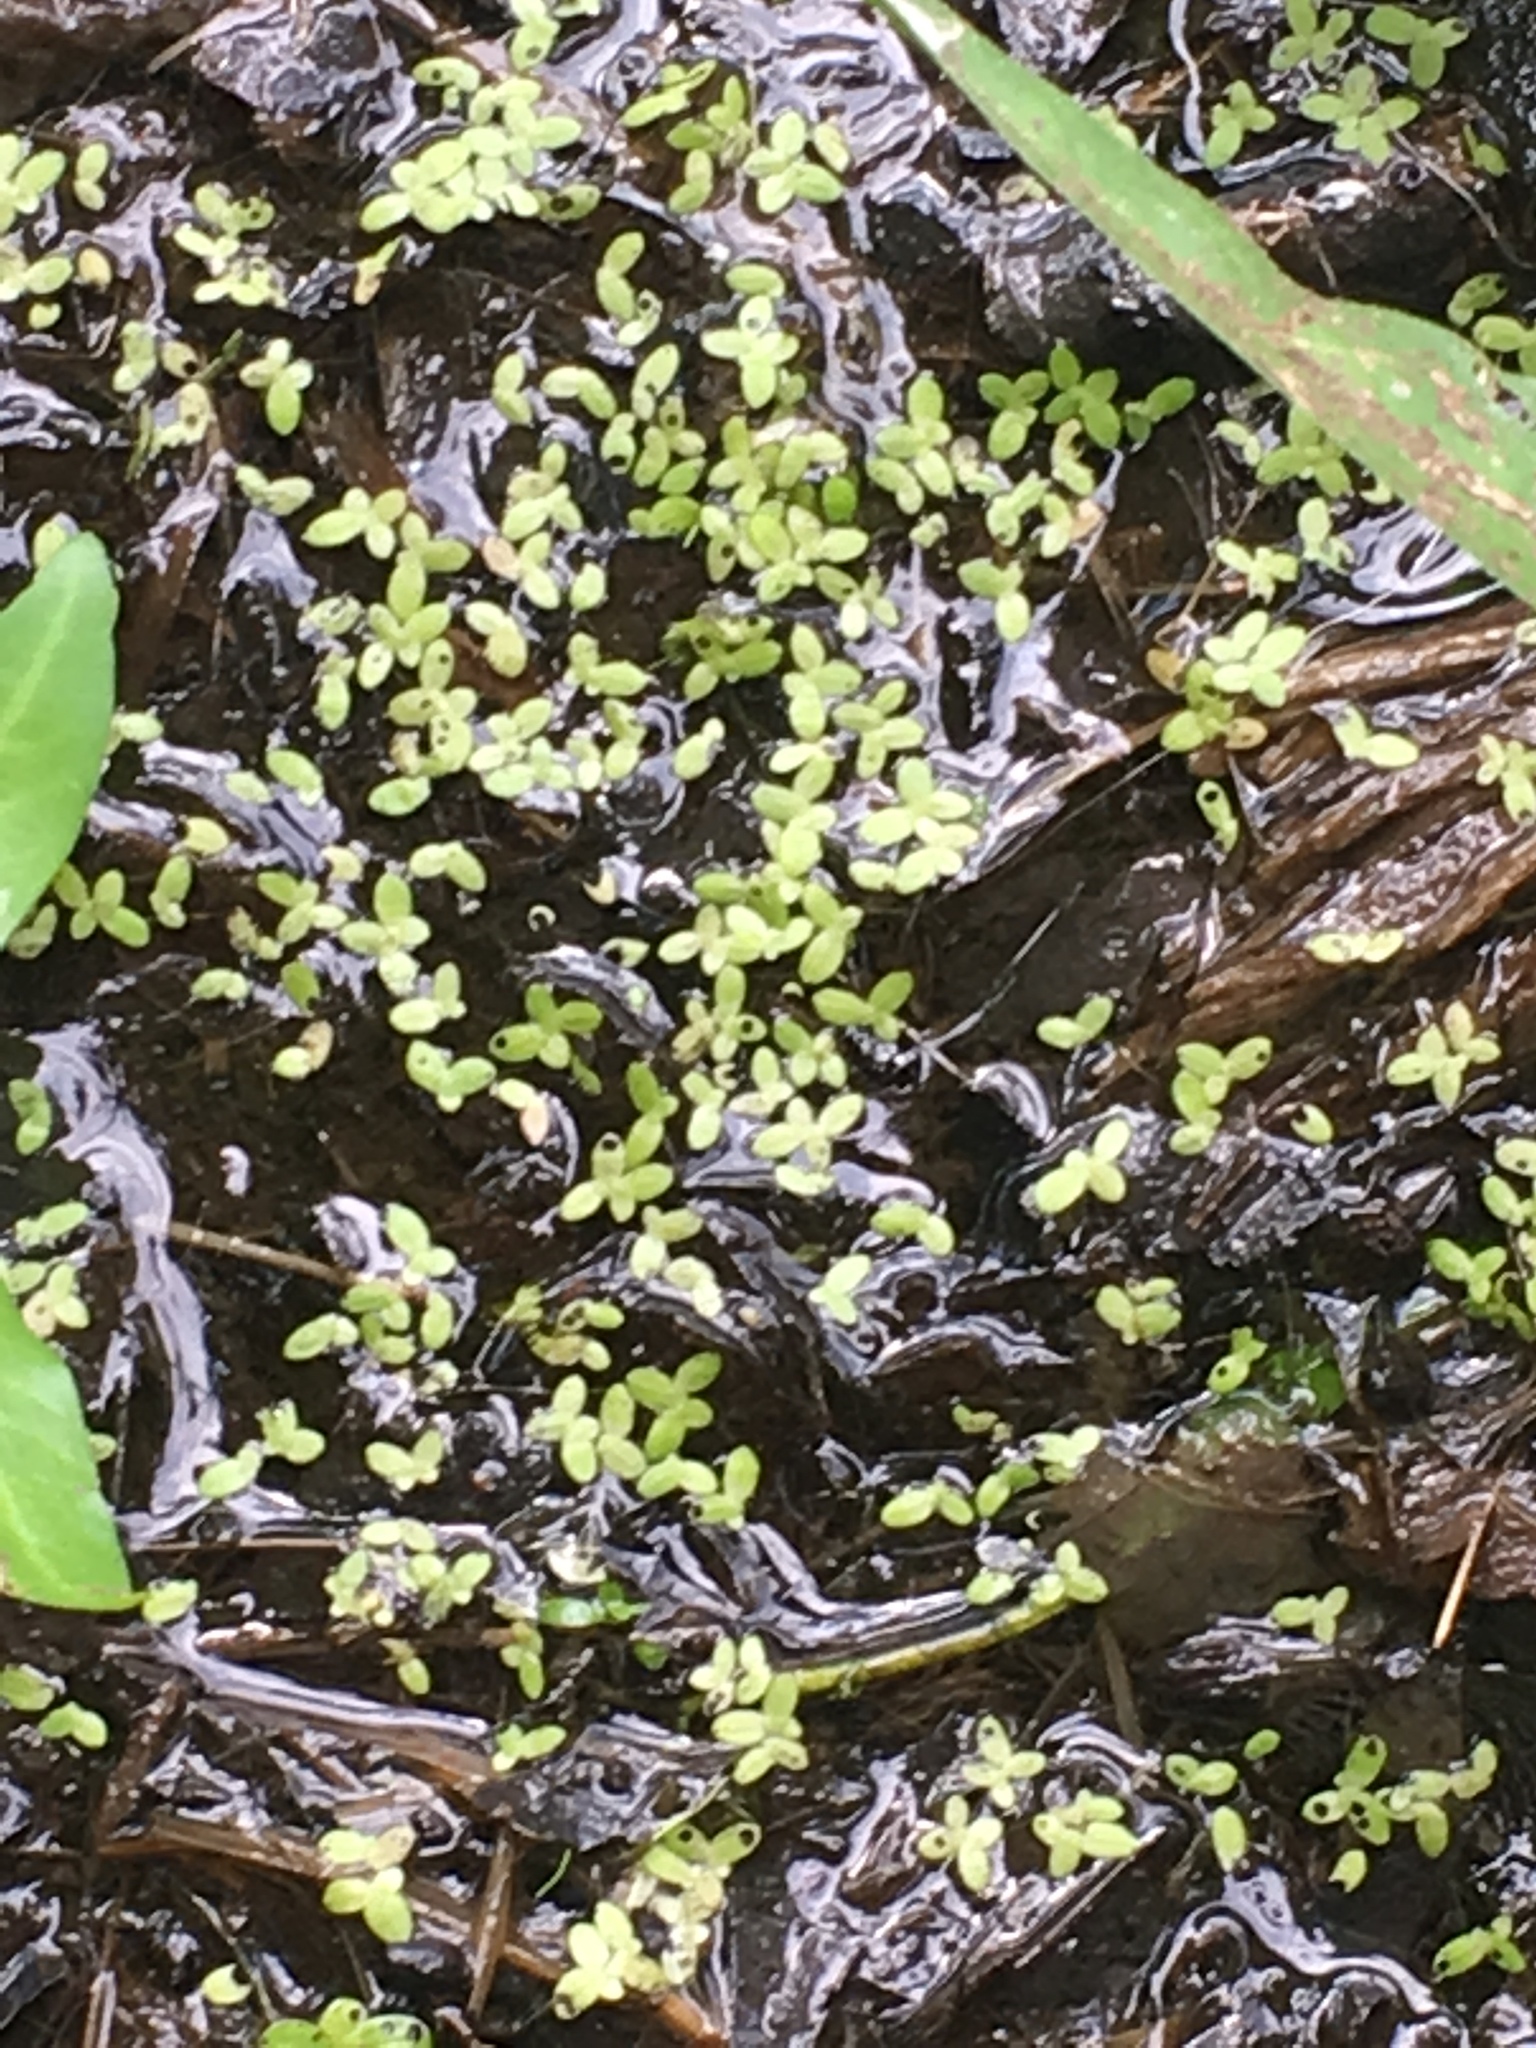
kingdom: Plantae
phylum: Tracheophyta
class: Liliopsida
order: Alismatales
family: Araceae
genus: Lemna
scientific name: Lemna minor
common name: Common duckweed
